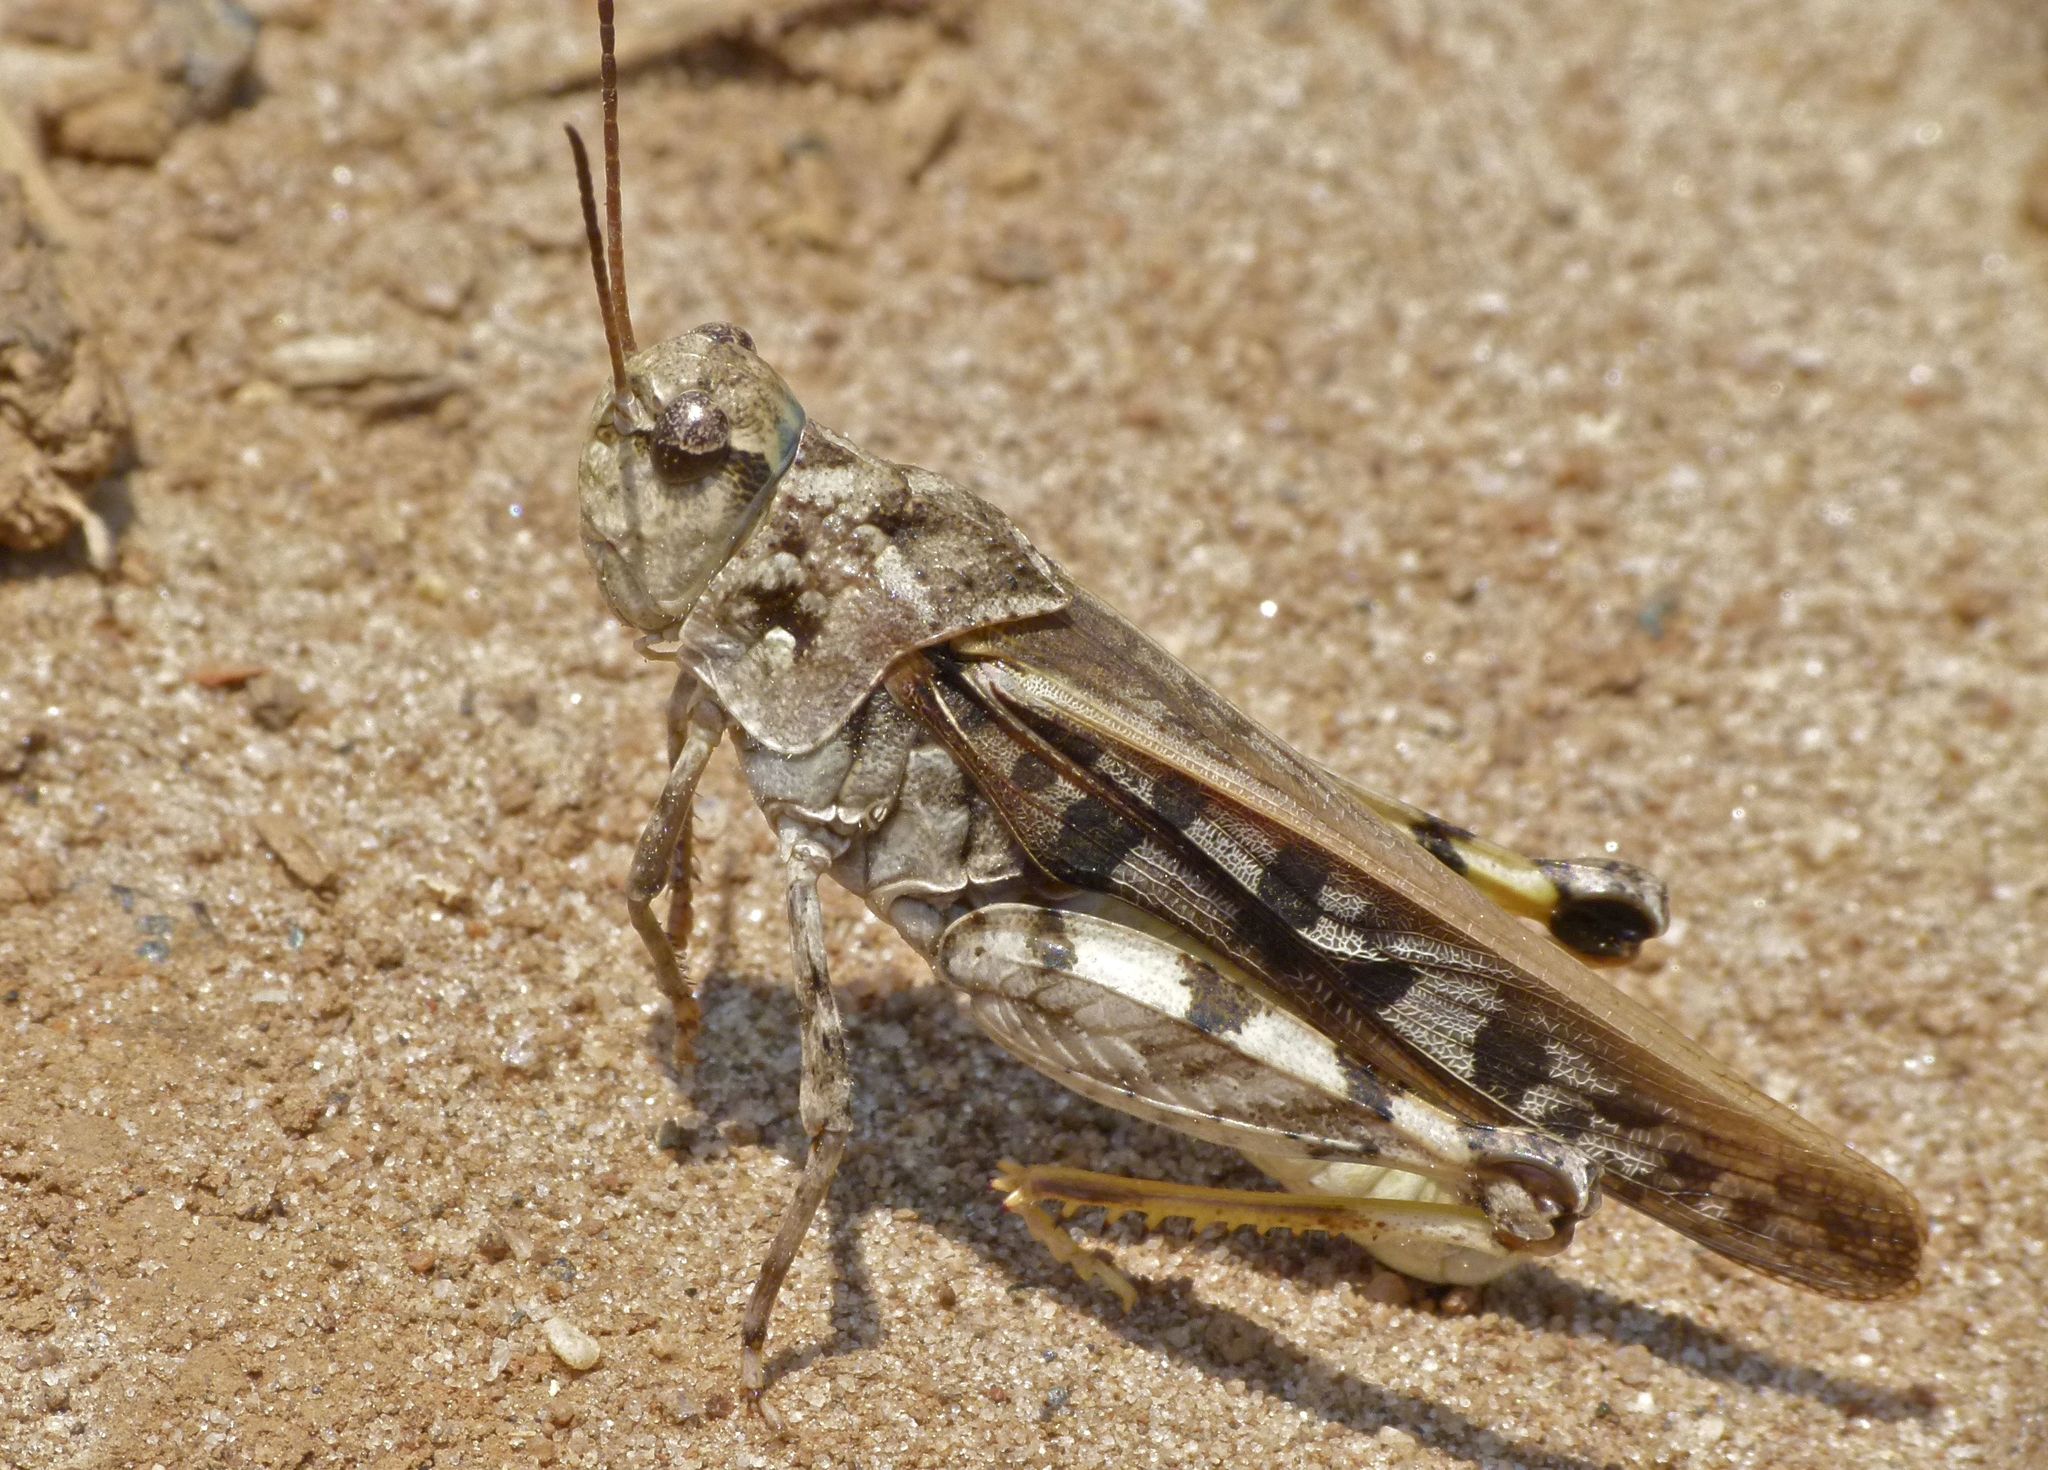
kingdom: Animalia
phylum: Arthropoda
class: Insecta
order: Orthoptera
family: Acrididae
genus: Pardalophora
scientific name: Pardalophora phoenicoptera
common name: Orange-winged grasshopper
